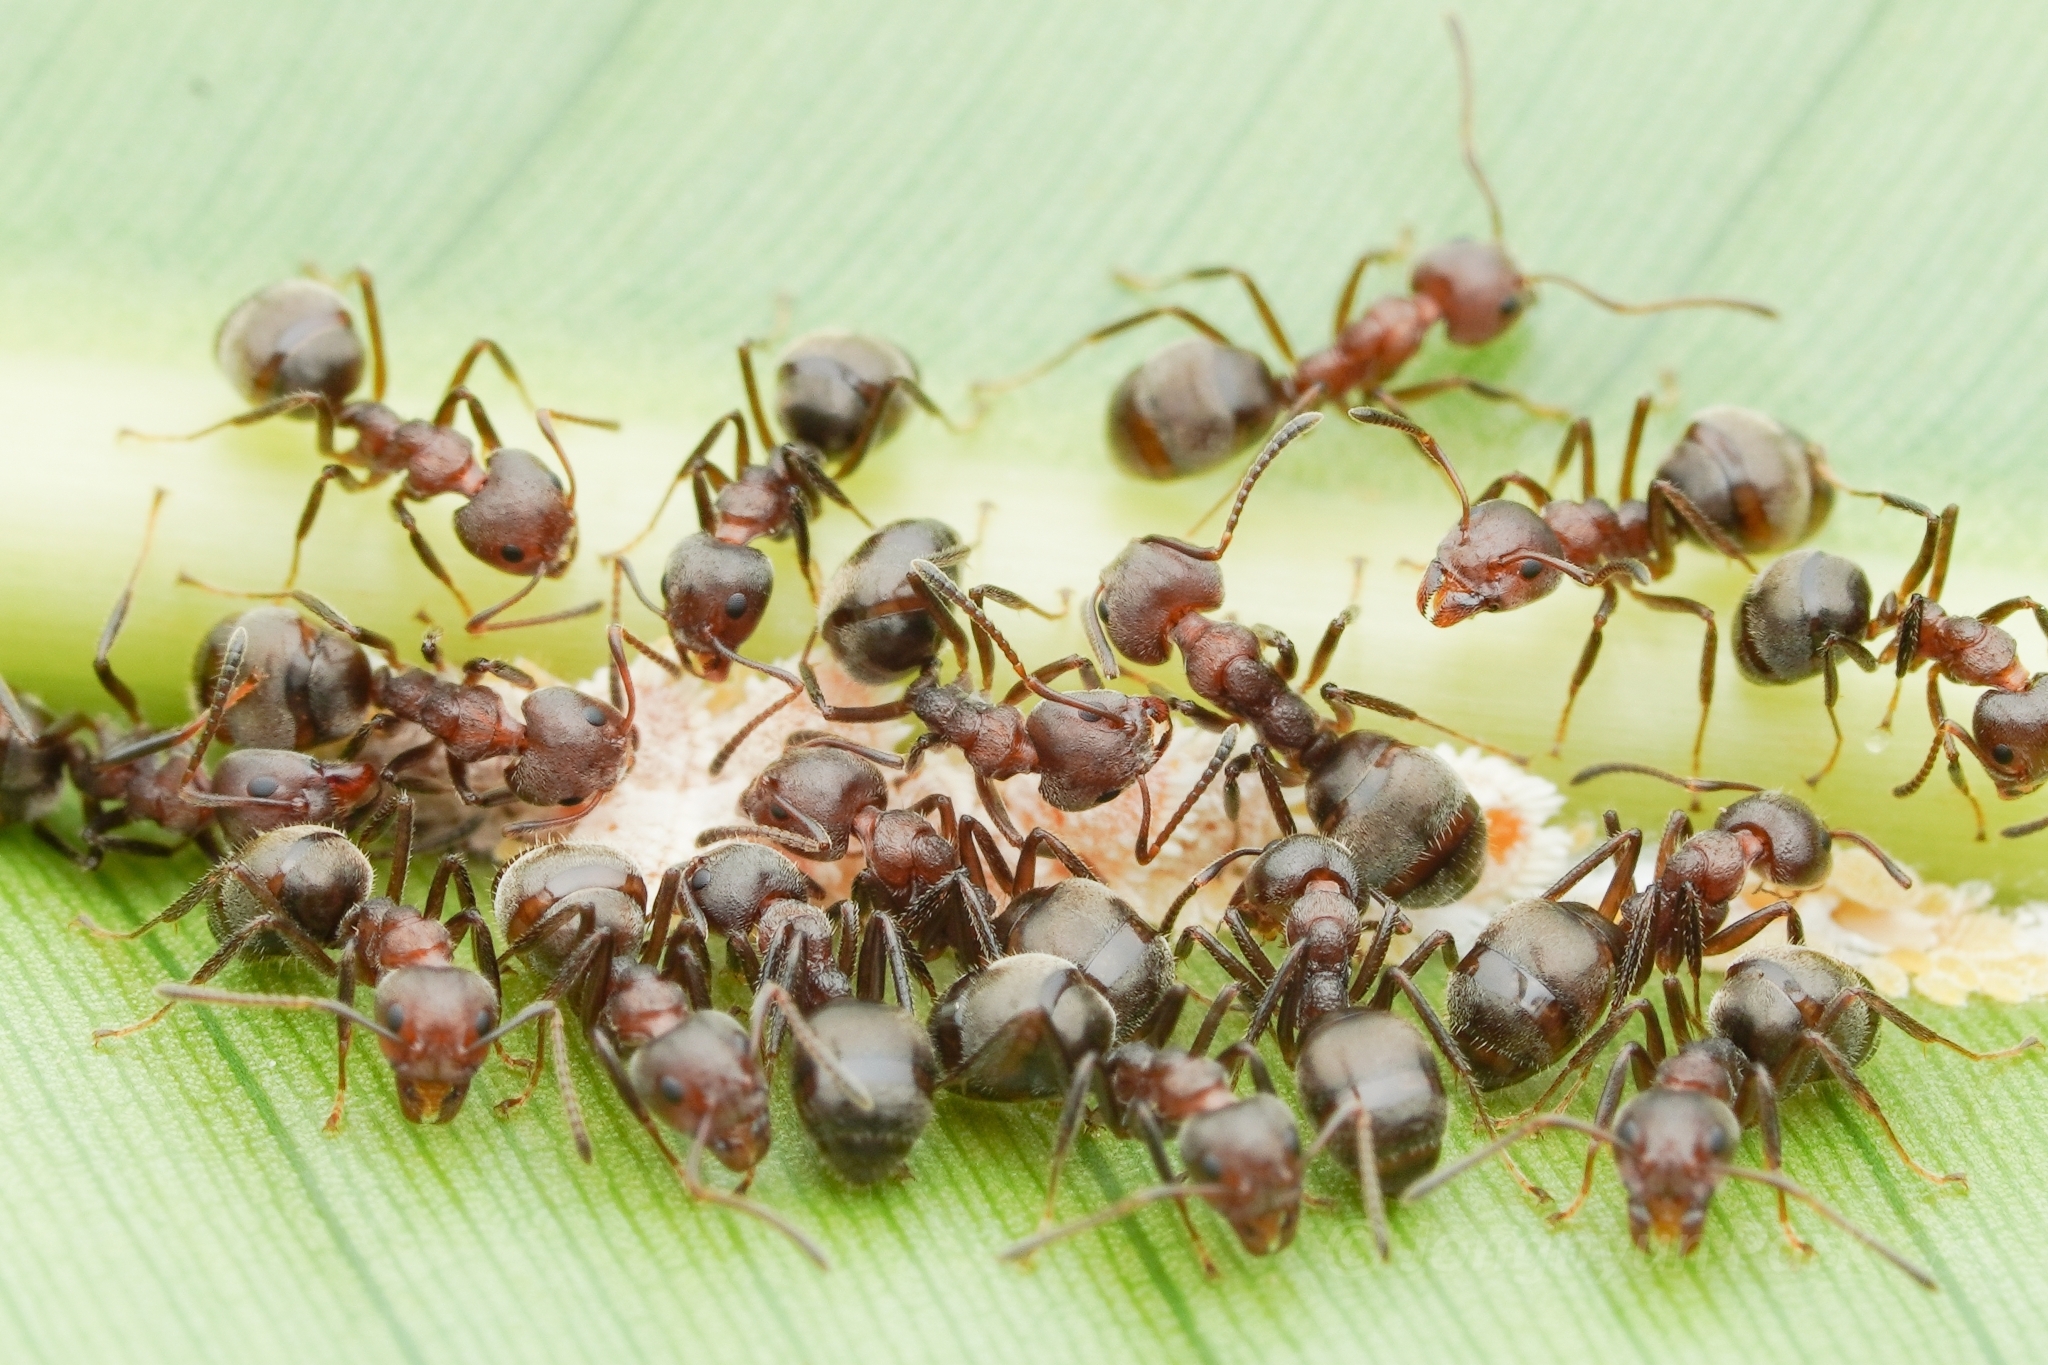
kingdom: Animalia
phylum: Arthropoda
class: Insecta
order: Hymenoptera
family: Formicidae
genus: Dolichoderus
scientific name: Dolichoderus thoracicus
